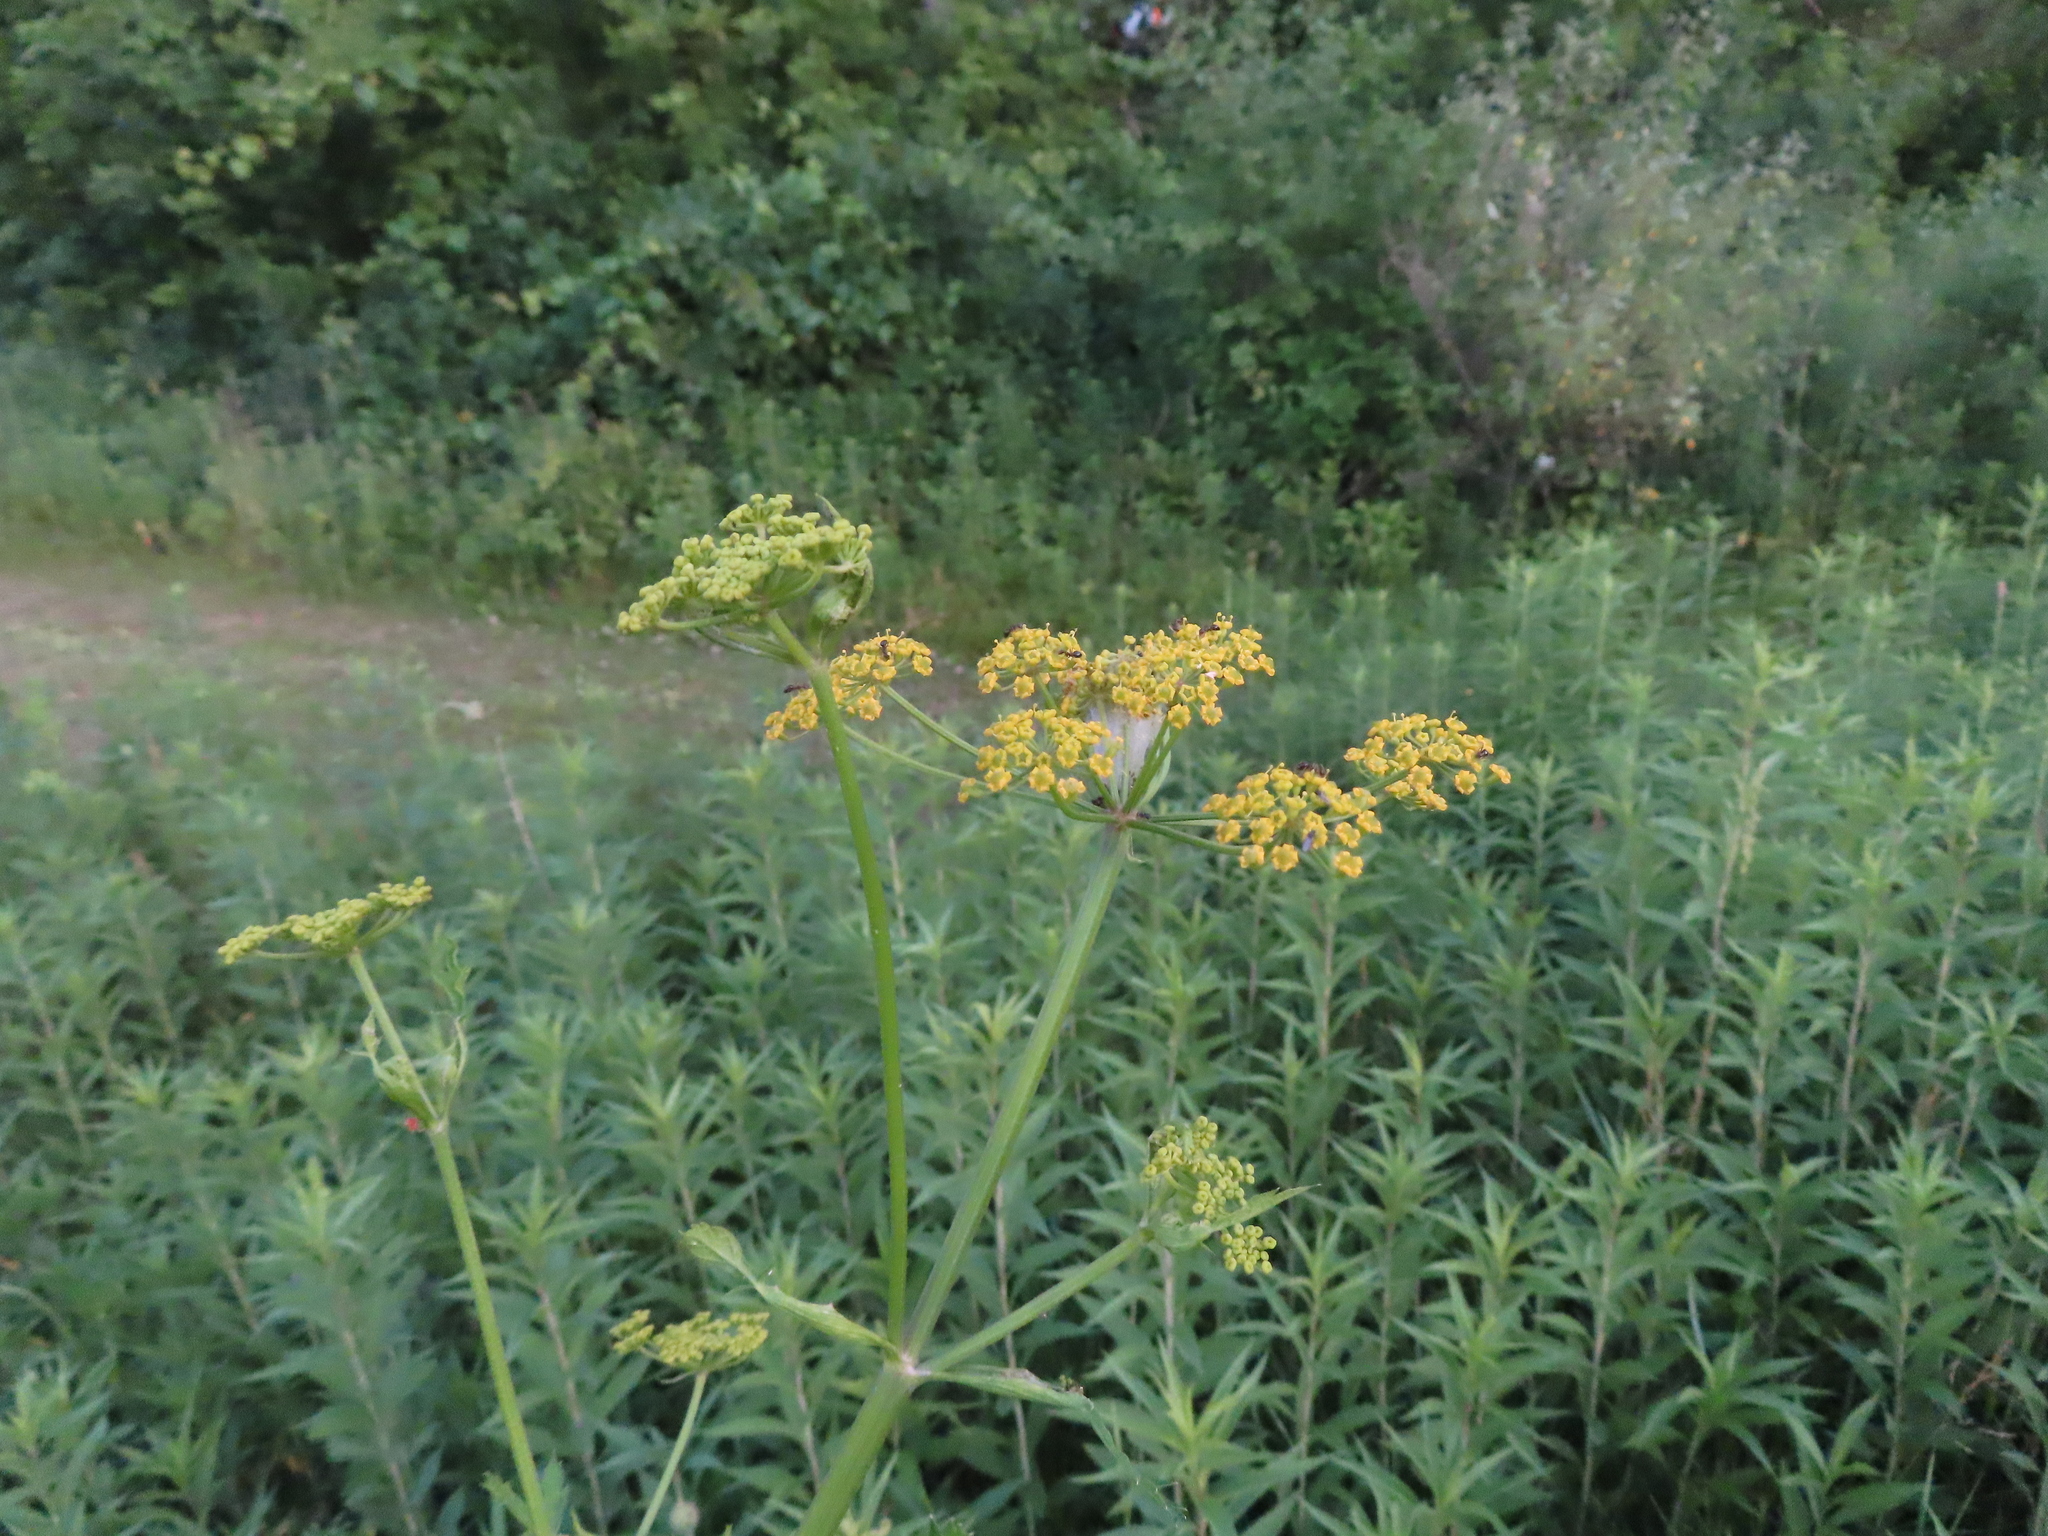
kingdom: Plantae
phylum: Tracheophyta
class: Magnoliopsida
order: Apiales
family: Apiaceae
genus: Pastinaca
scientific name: Pastinaca sativa
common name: Wild parsnip
